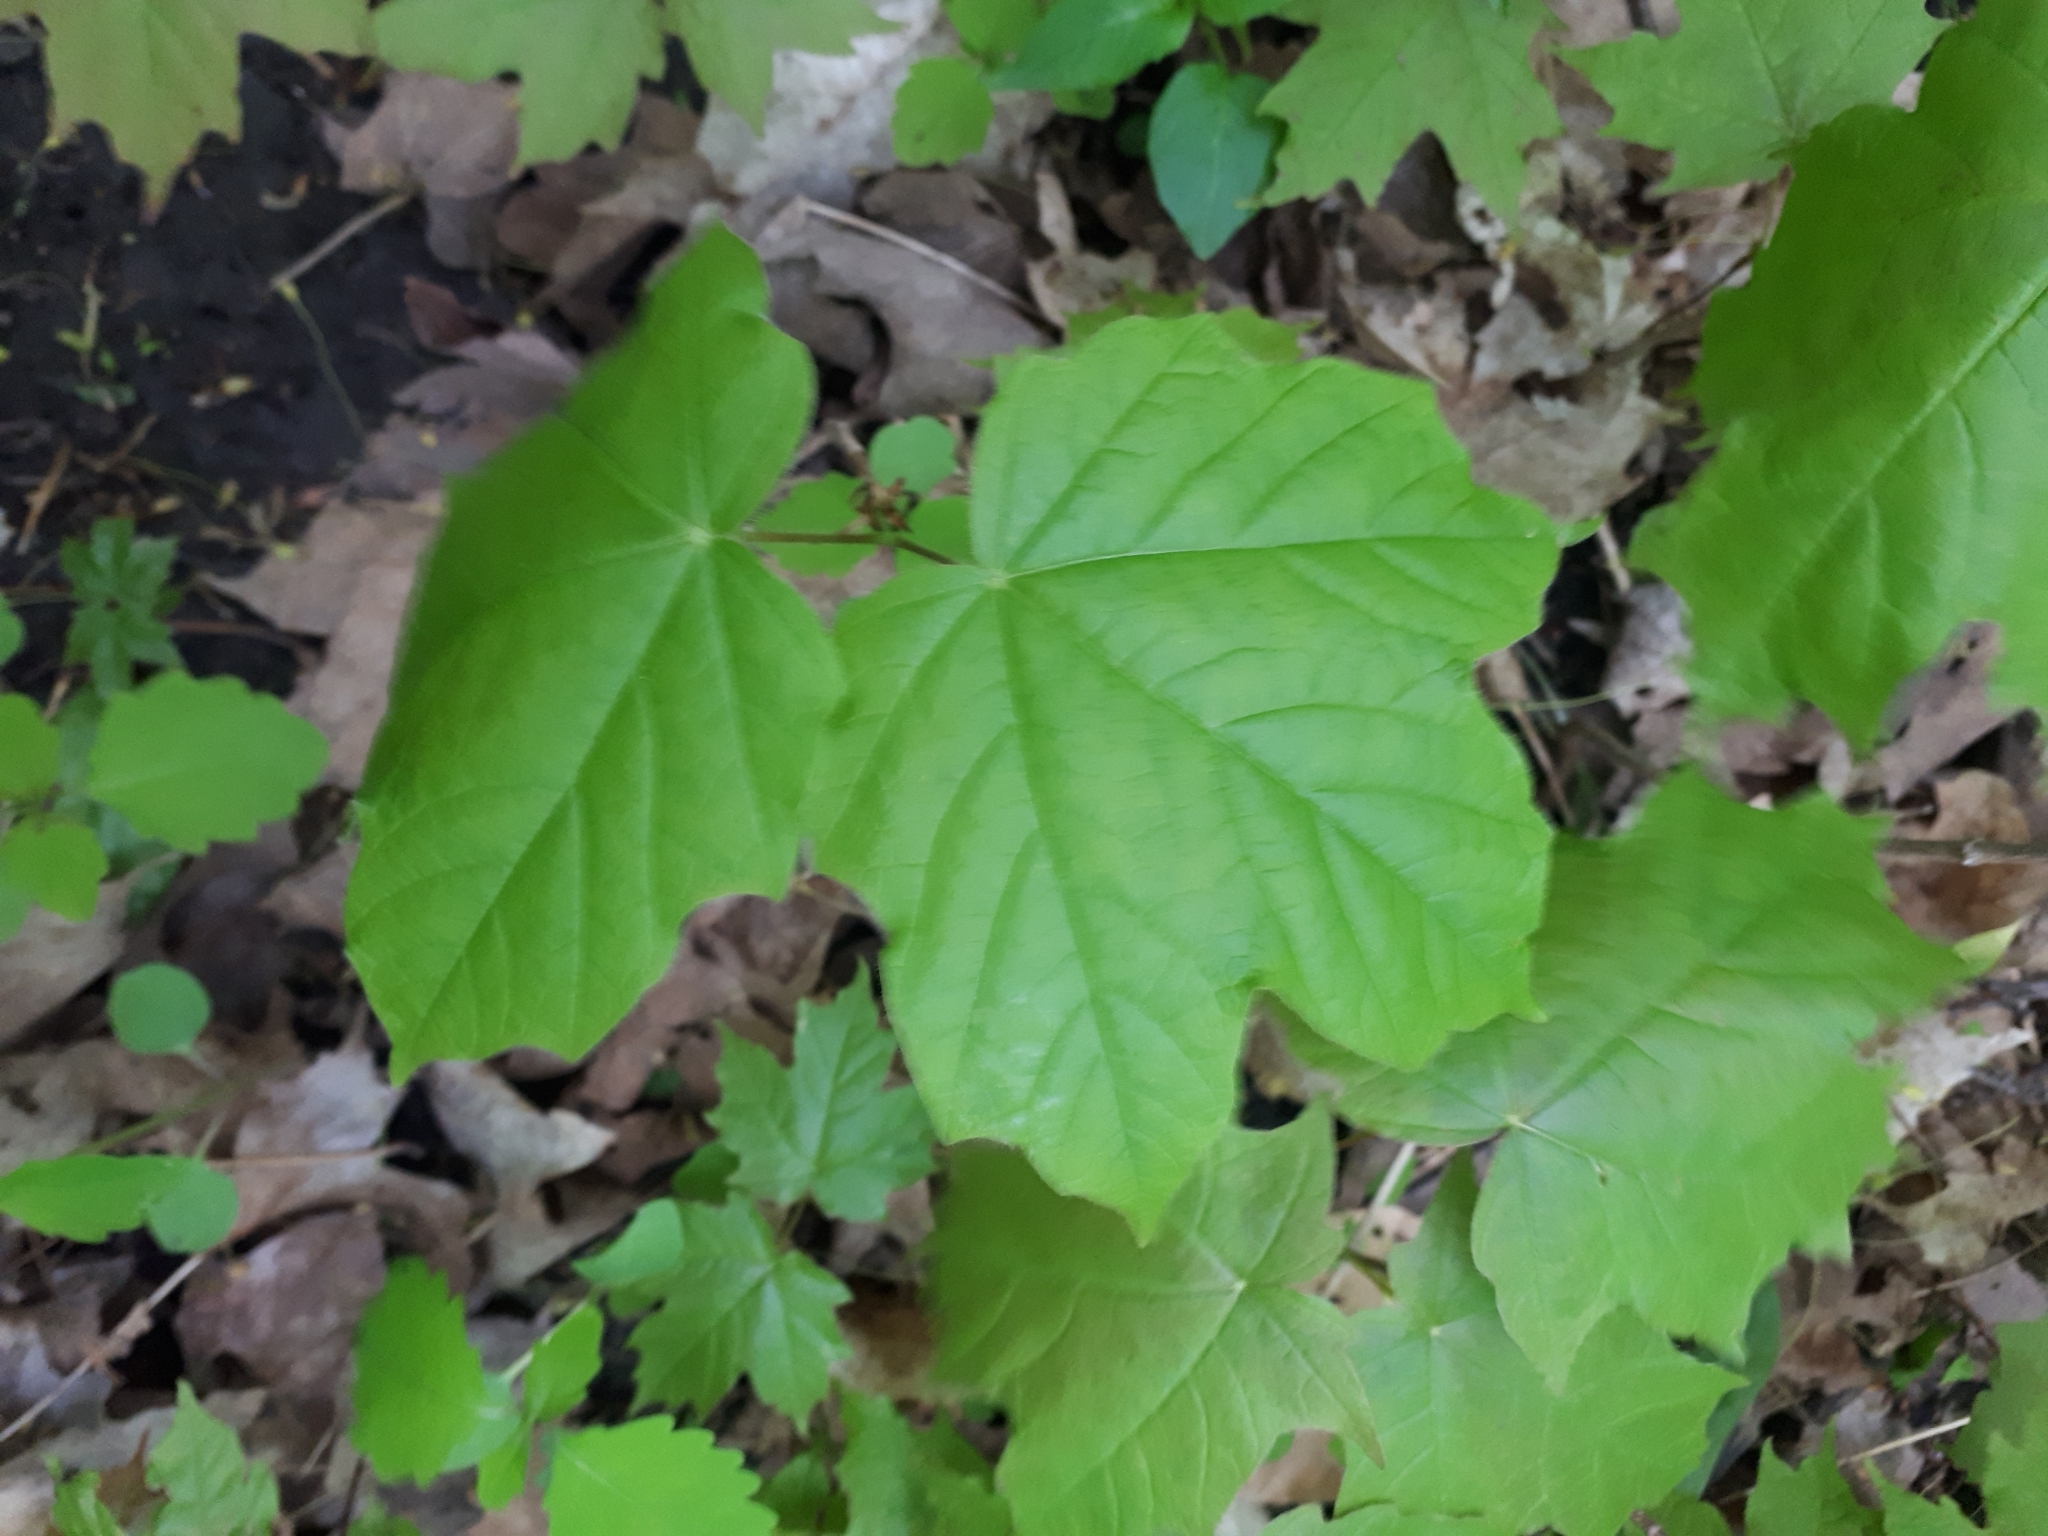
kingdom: Plantae
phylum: Tracheophyta
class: Magnoliopsida
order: Sapindales
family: Sapindaceae
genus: Acer
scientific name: Acer nigrum
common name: Black maple
